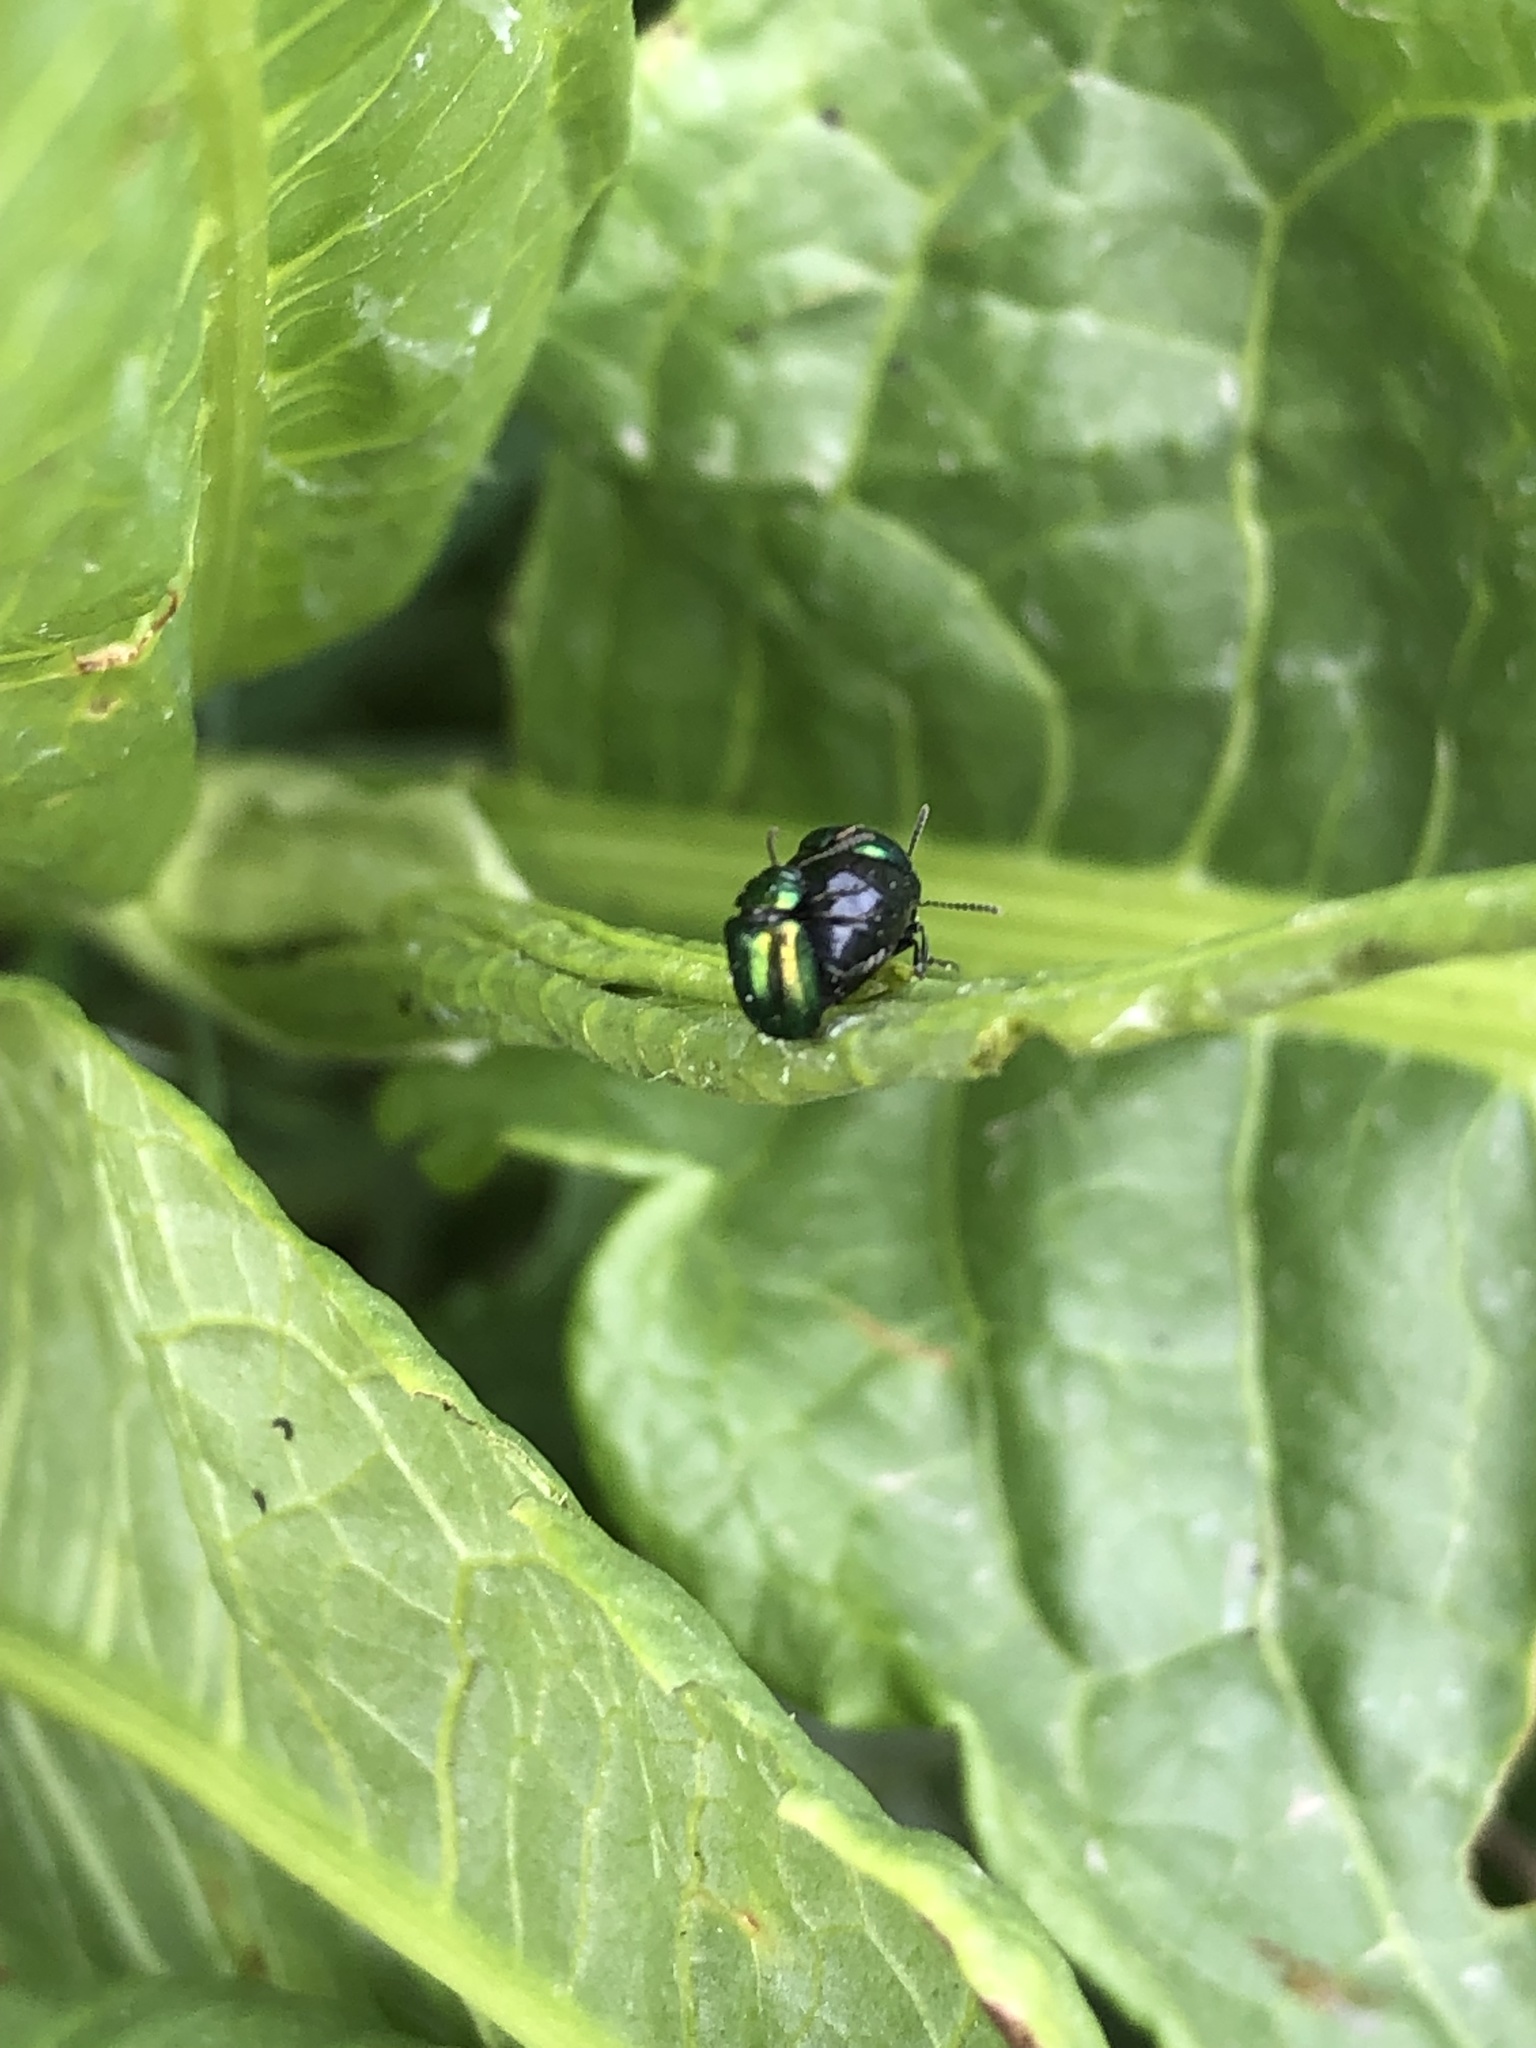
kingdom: Animalia
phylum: Arthropoda
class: Insecta
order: Coleoptera
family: Chrysomelidae
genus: Gastrophysa
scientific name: Gastrophysa cyanea
